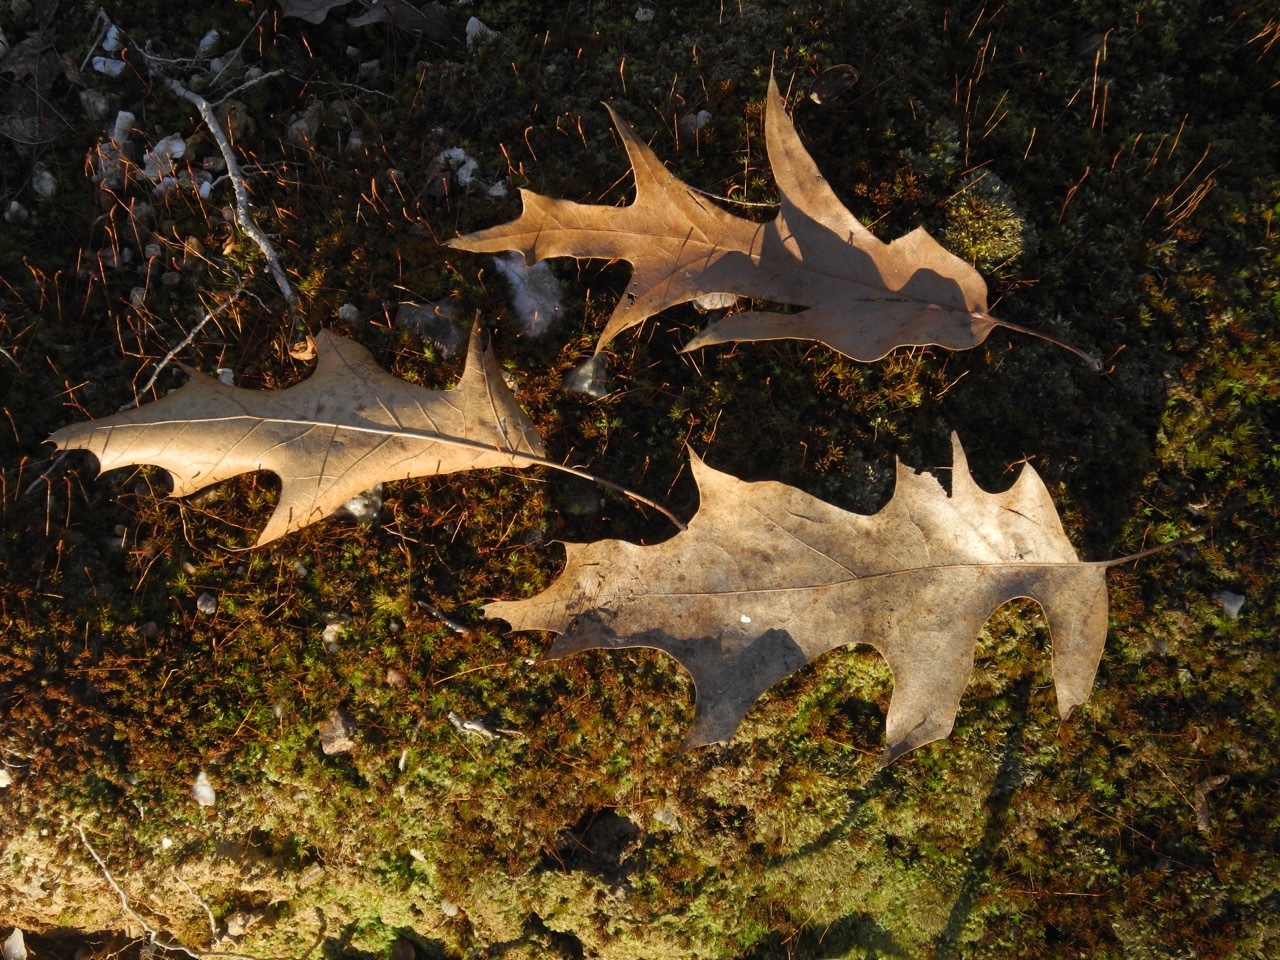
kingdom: Plantae
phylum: Tracheophyta
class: Magnoliopsida
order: Fagales
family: Fagaceae
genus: Quercus
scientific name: Quercus pagoda
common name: Cherrybark oak
